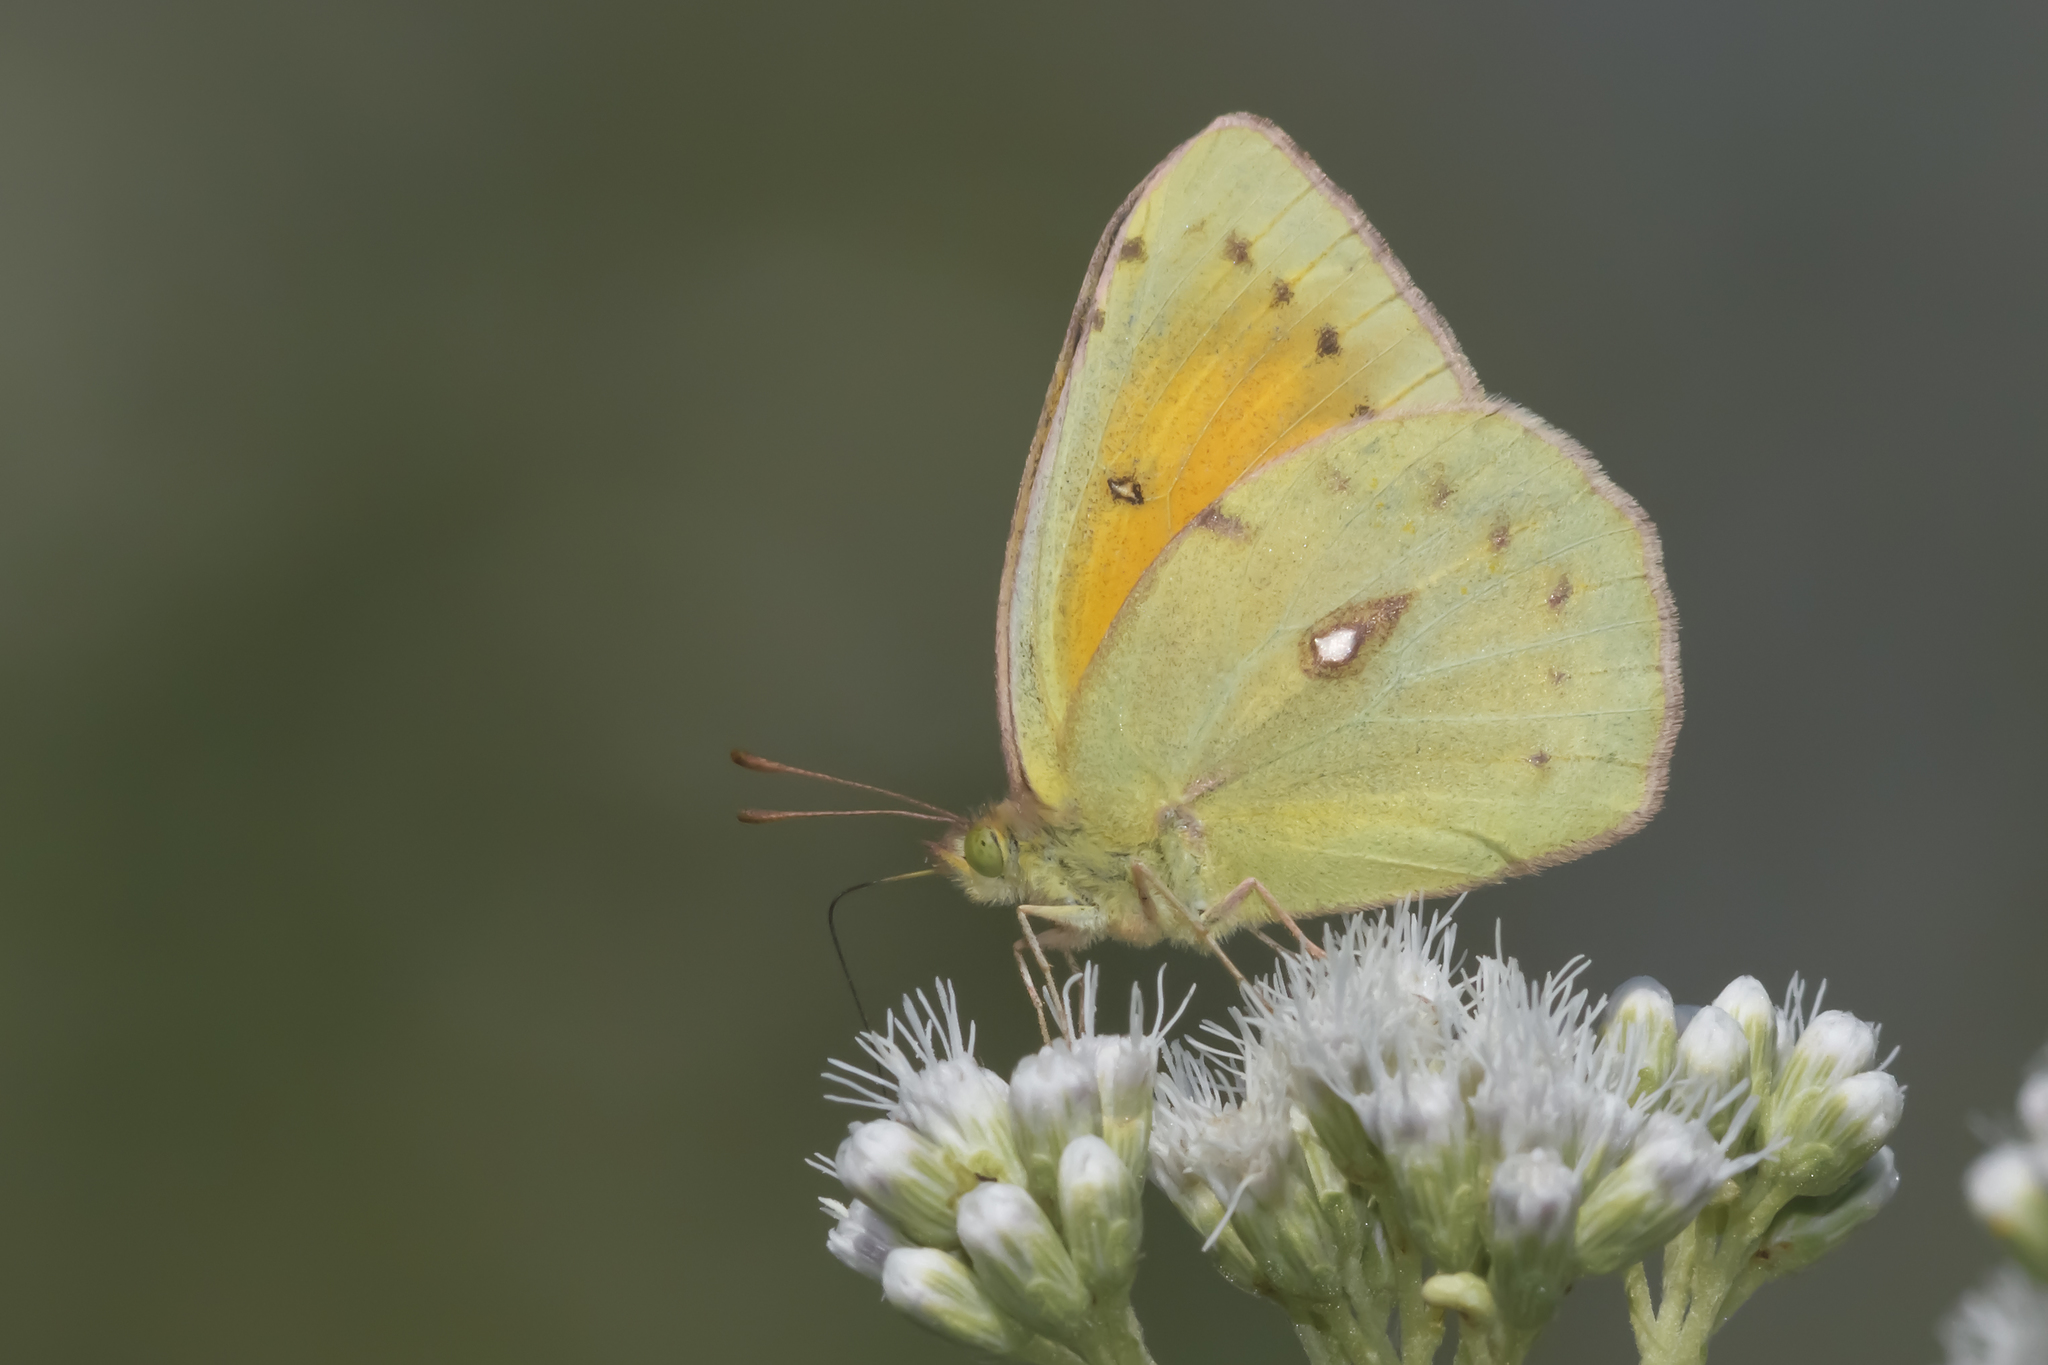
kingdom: Animalia
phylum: Arthropoda
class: Insecta
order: Lepidoptera
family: Pieridae
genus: Colias
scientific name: Colias lesbia
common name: Lesbia clouded yellow
